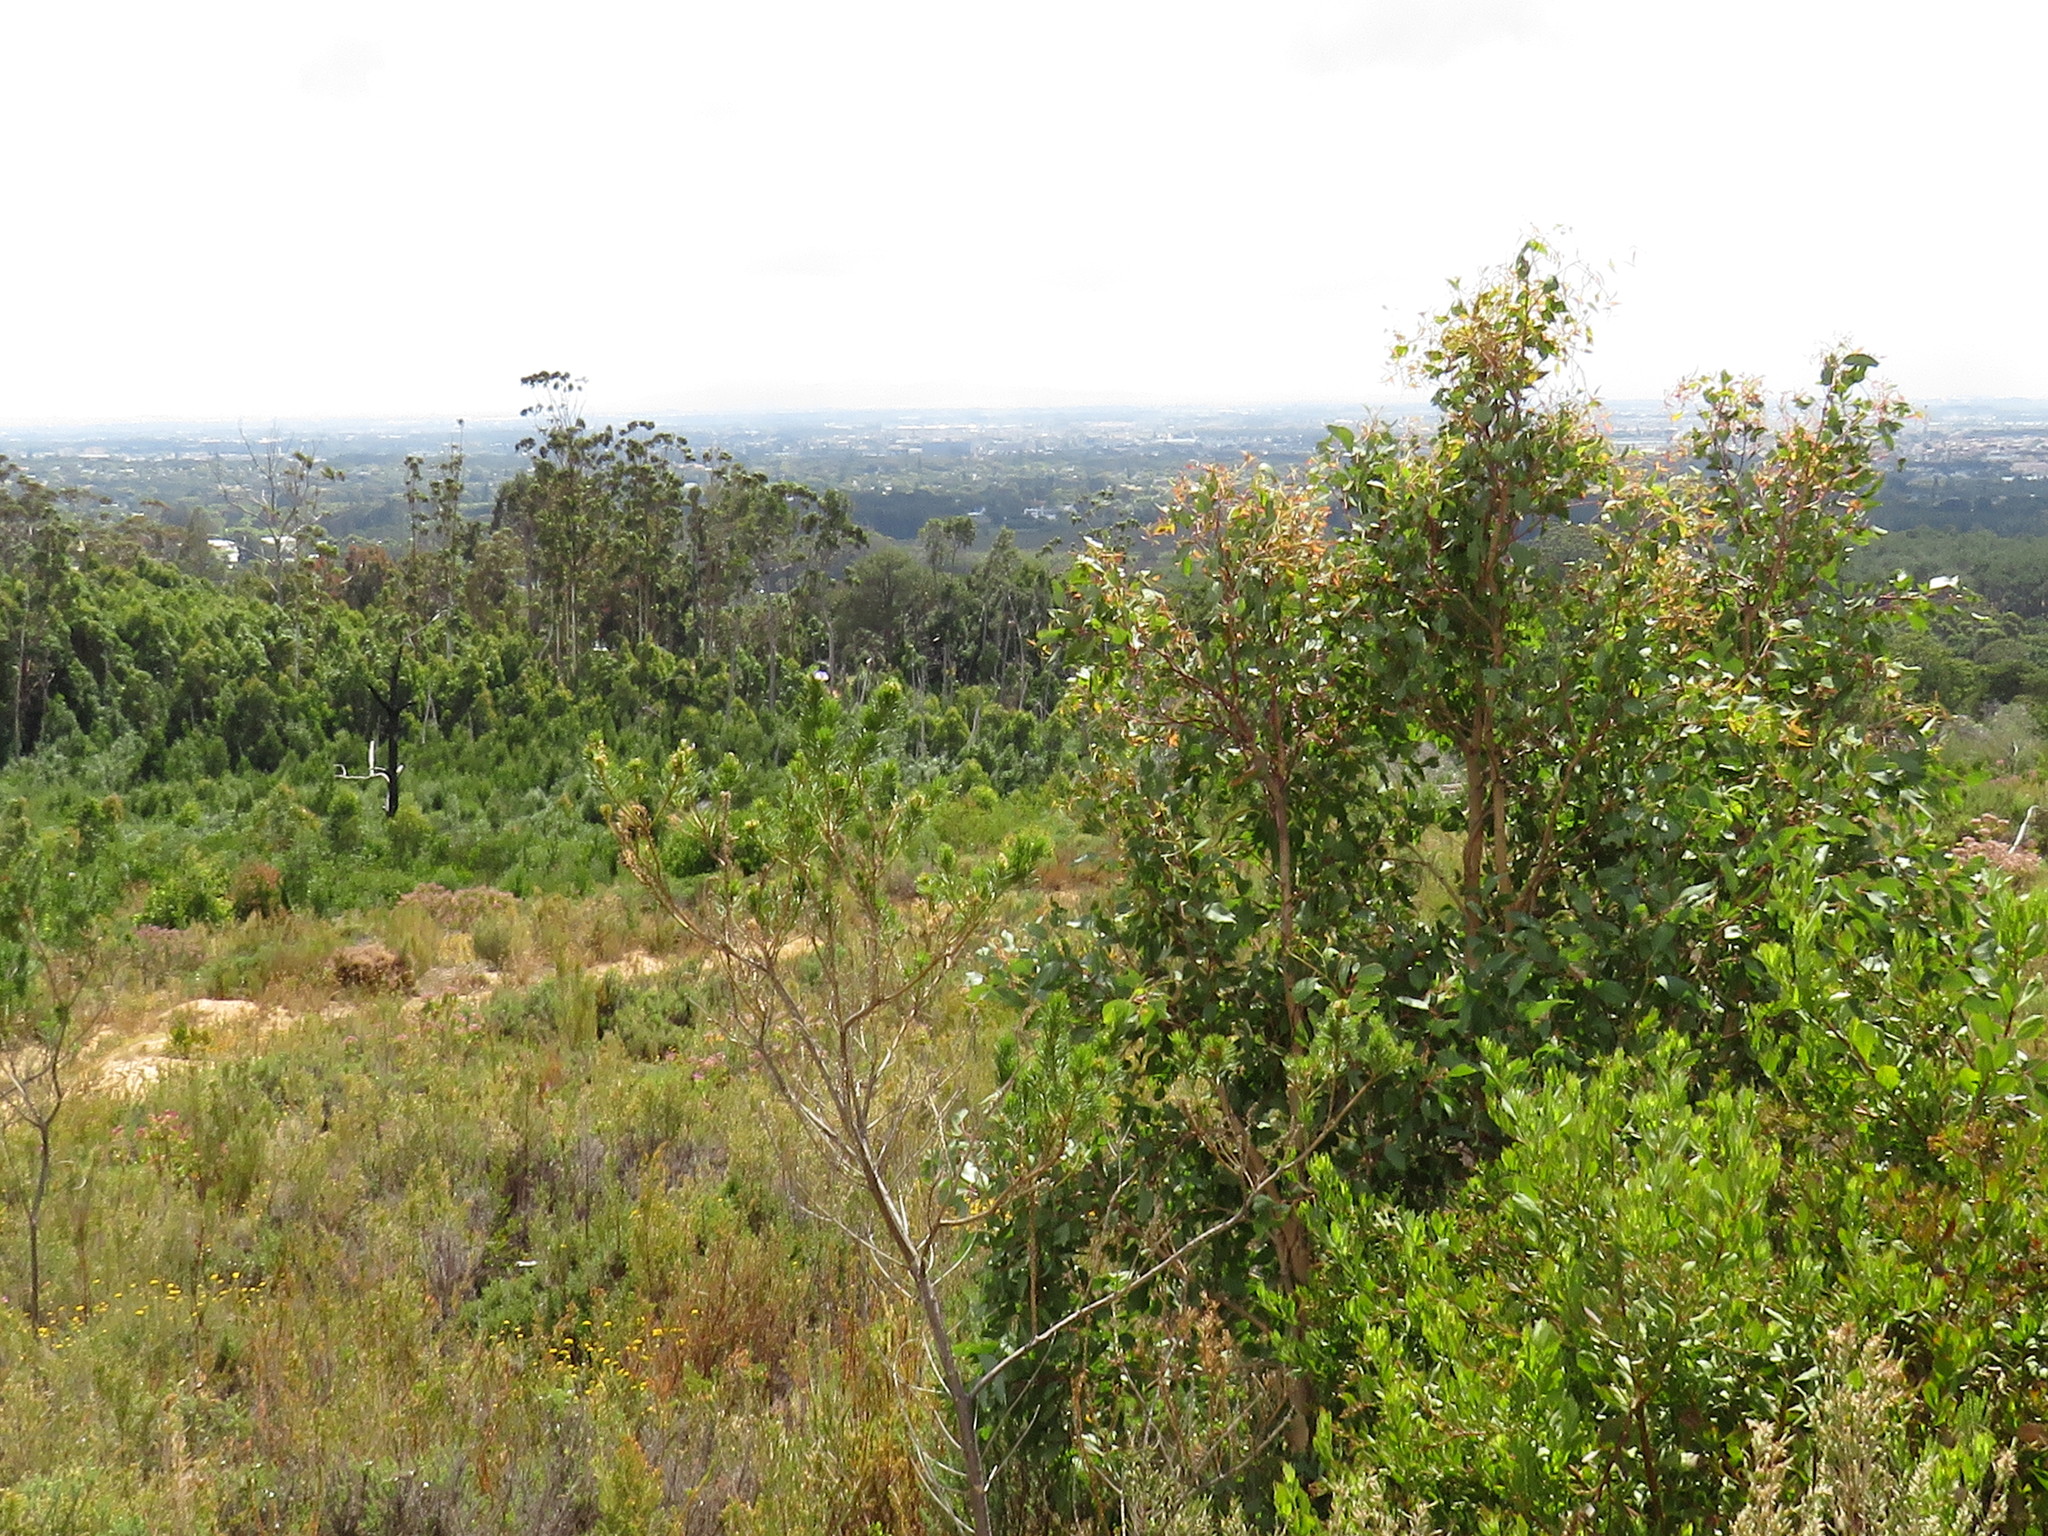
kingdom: Plantae
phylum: Tracheophyta
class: Magnoliopsida
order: Myrtales
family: Myrtaceae
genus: Melaleuca
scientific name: Melaleuca hypericifolia
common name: Red honey myrtle
